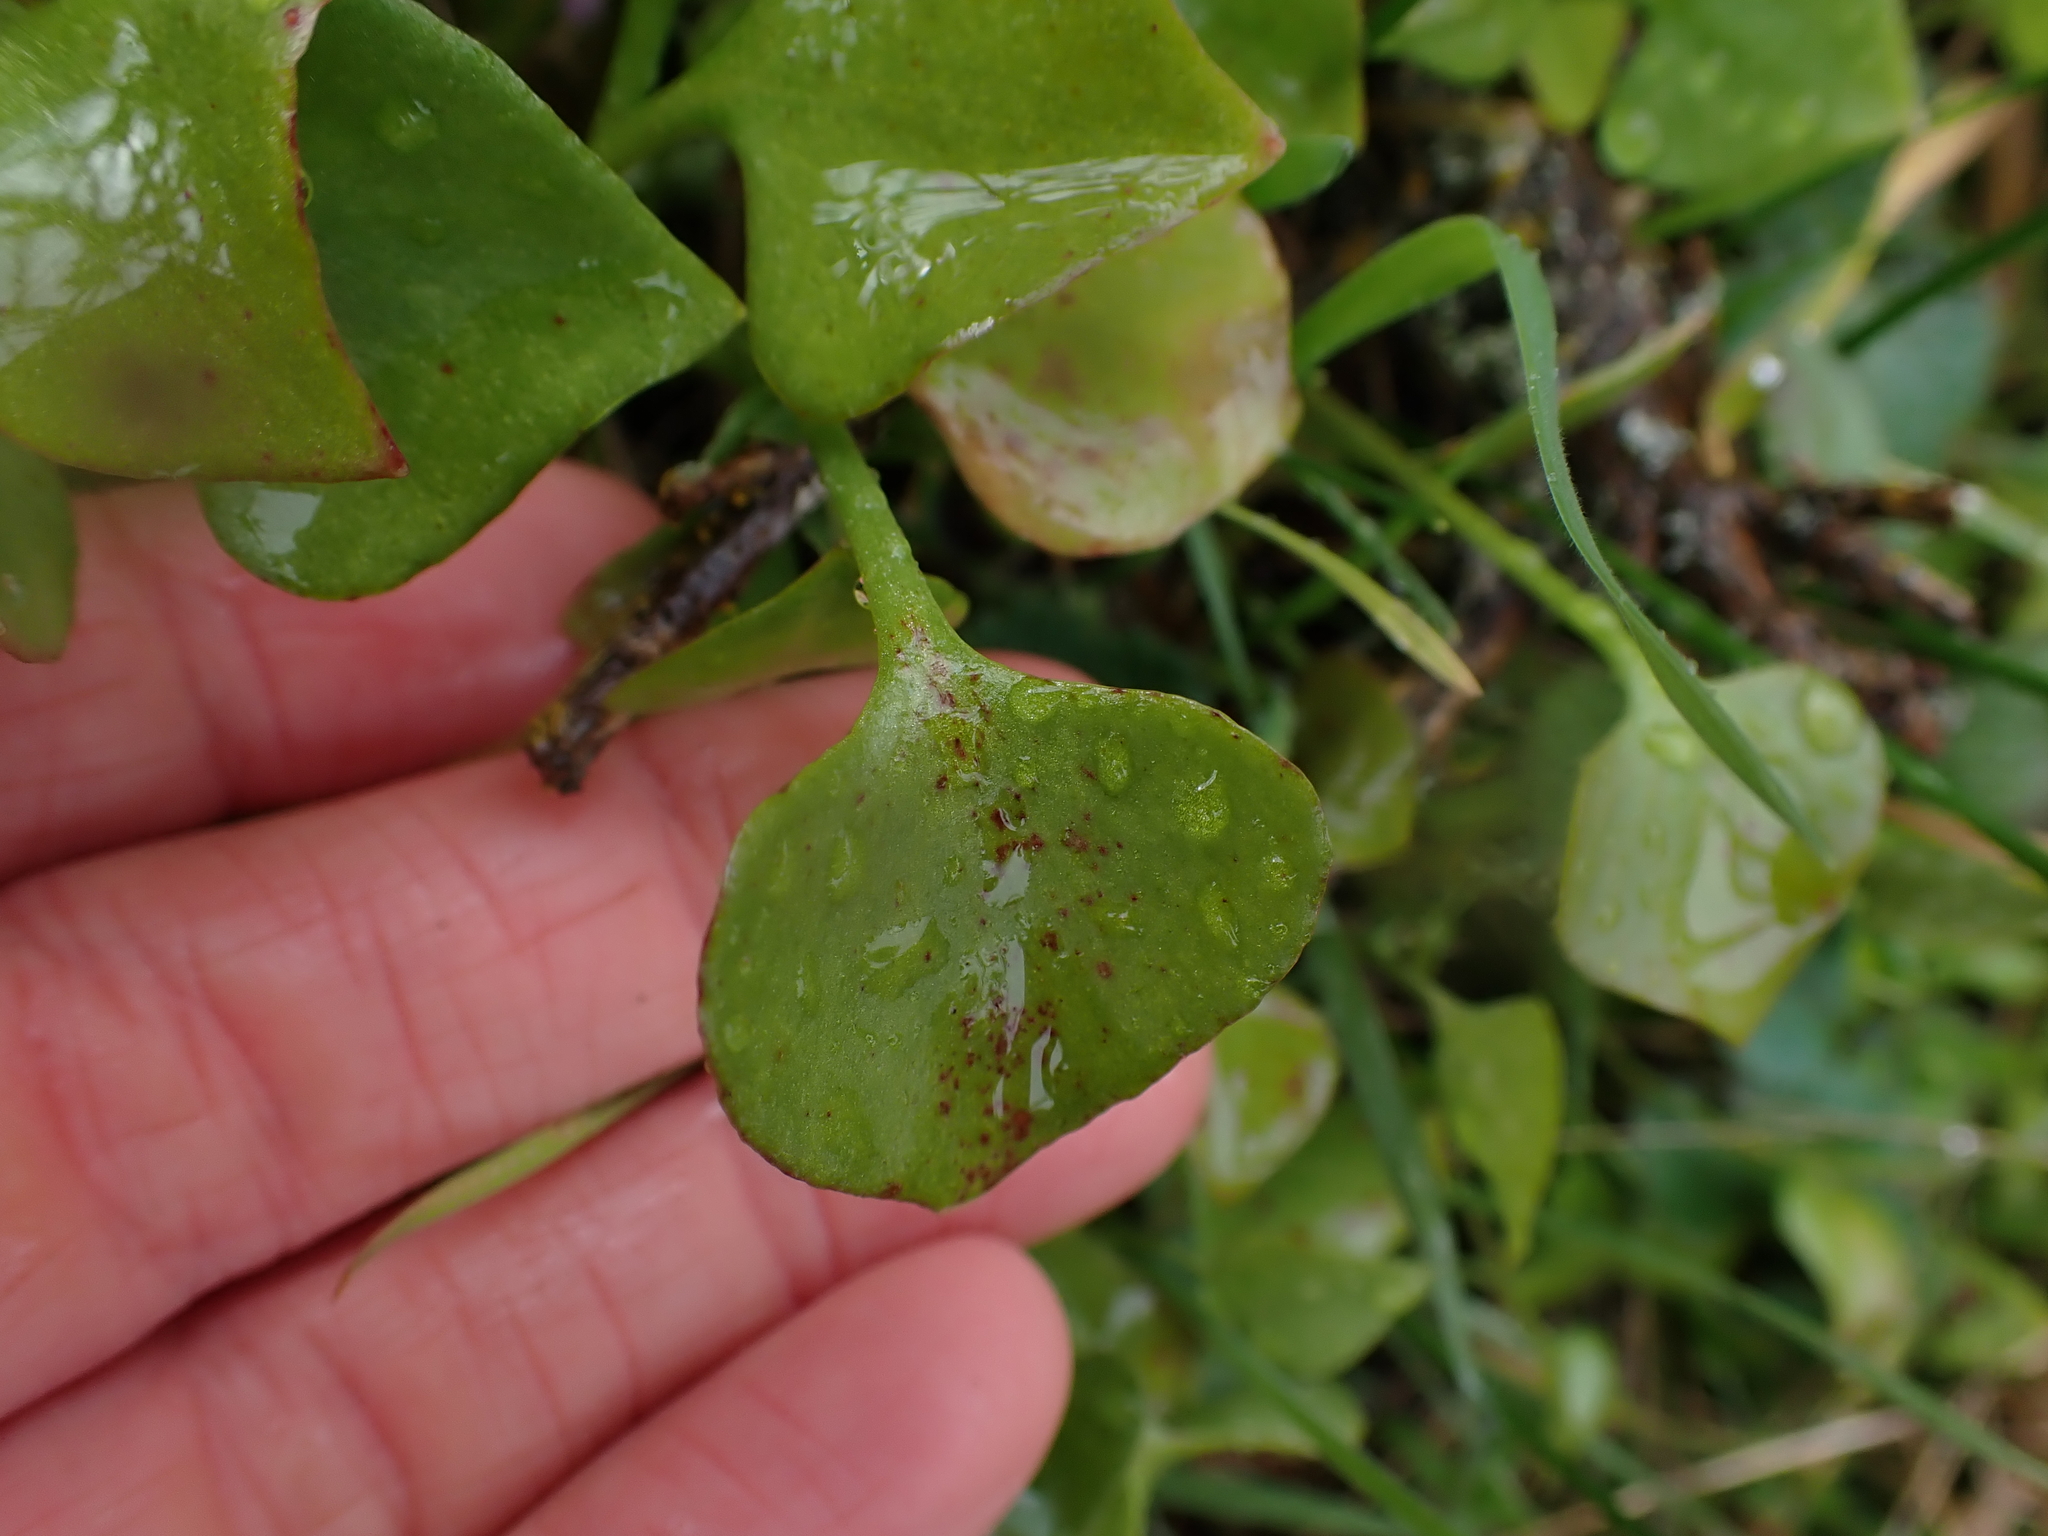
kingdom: Plantae
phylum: Tracheophyta
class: Magnoliopsida
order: Caryophyllales
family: Montiaceae
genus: Claytonia
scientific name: Claytonia perfoliata
